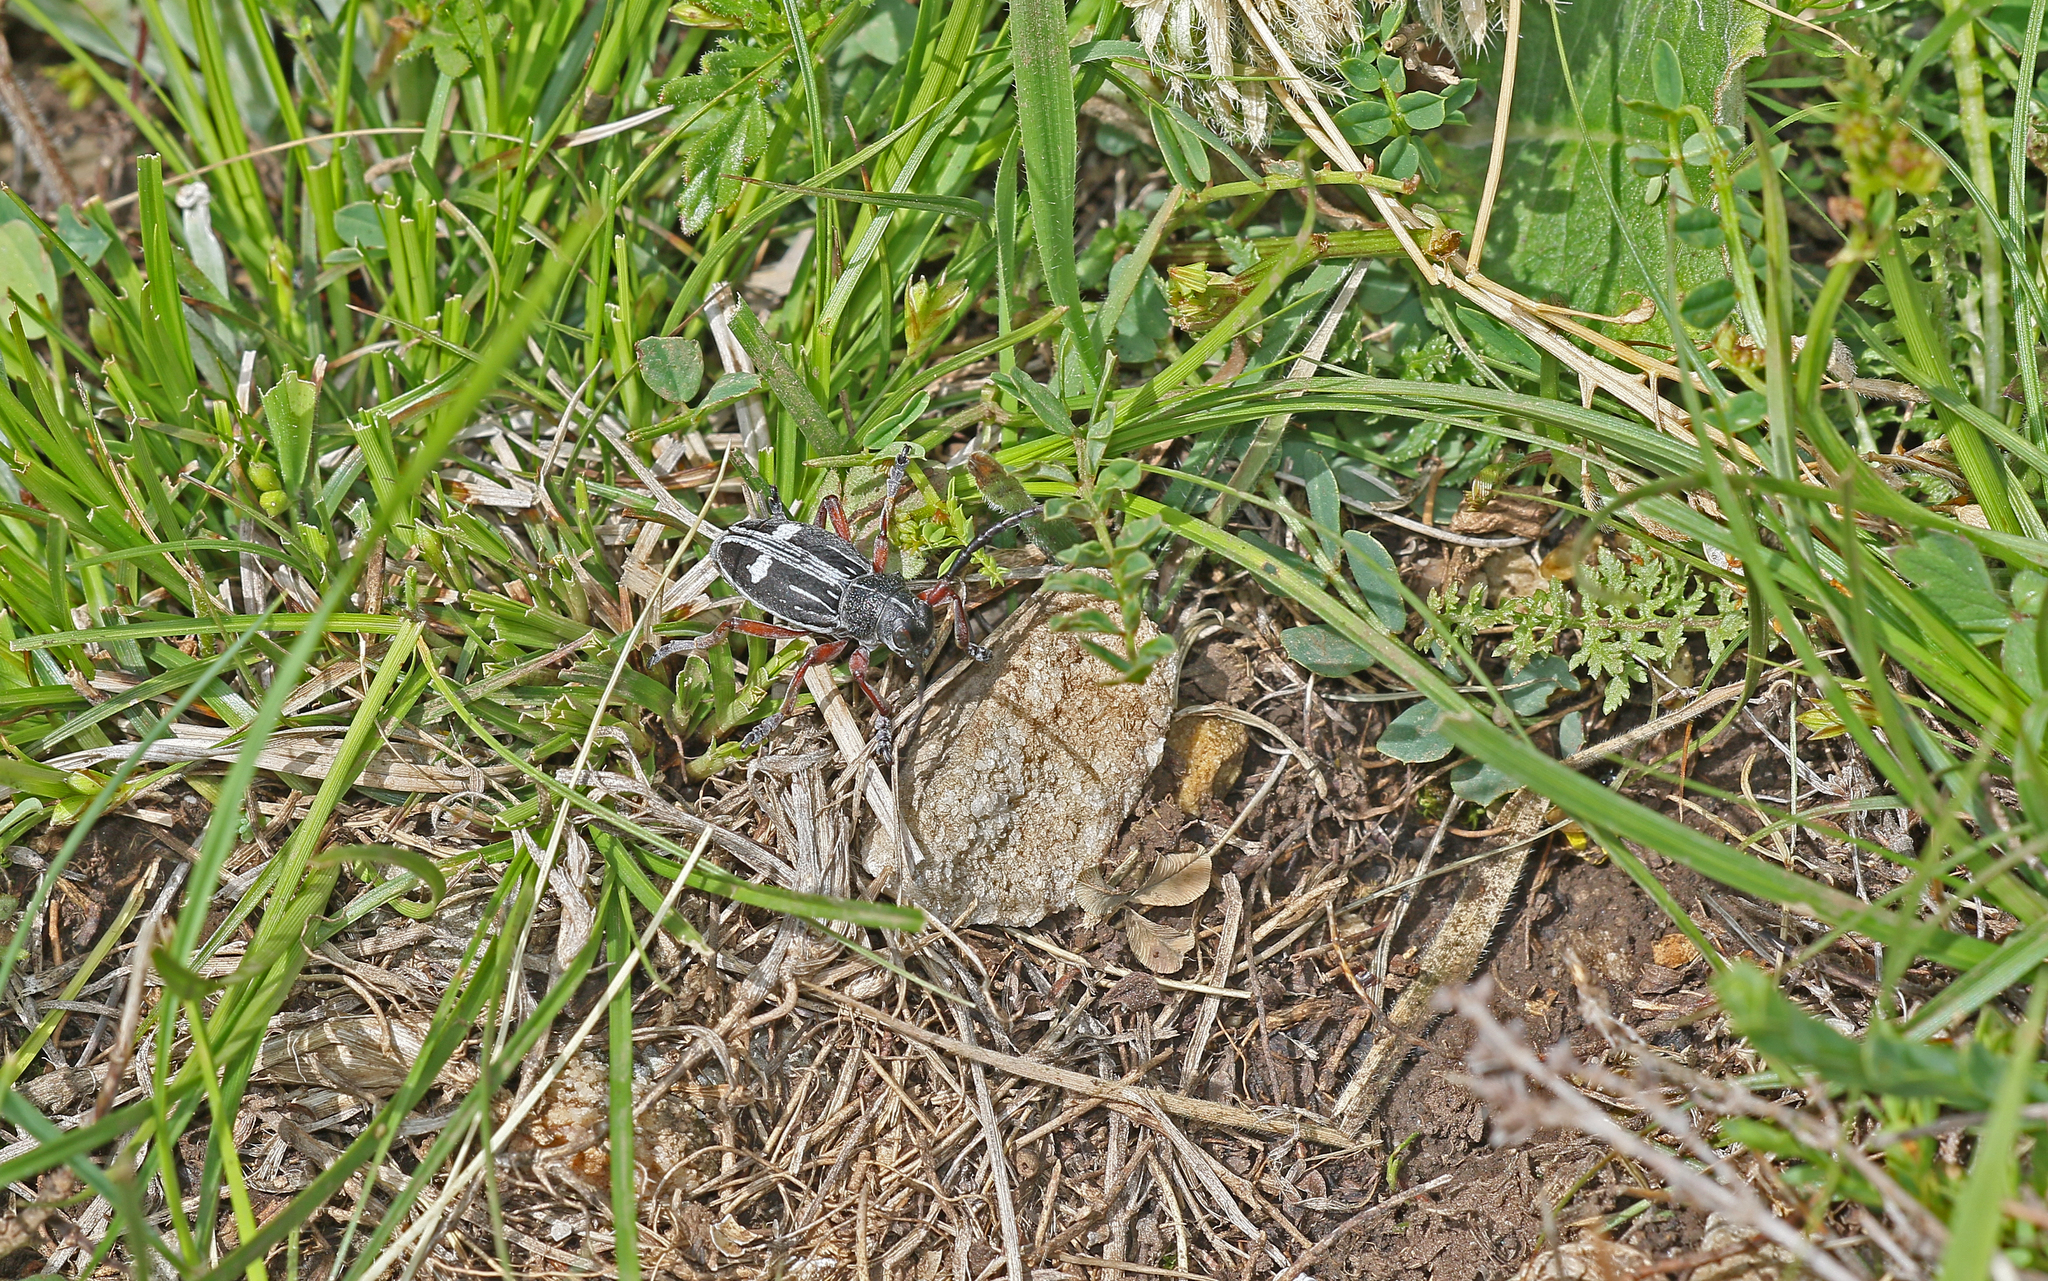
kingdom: Animalia
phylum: Arthropoda
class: Insecta
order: Coleoptera
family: Cerambycidae
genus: Dorcadion
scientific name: Dorcadion equestre
